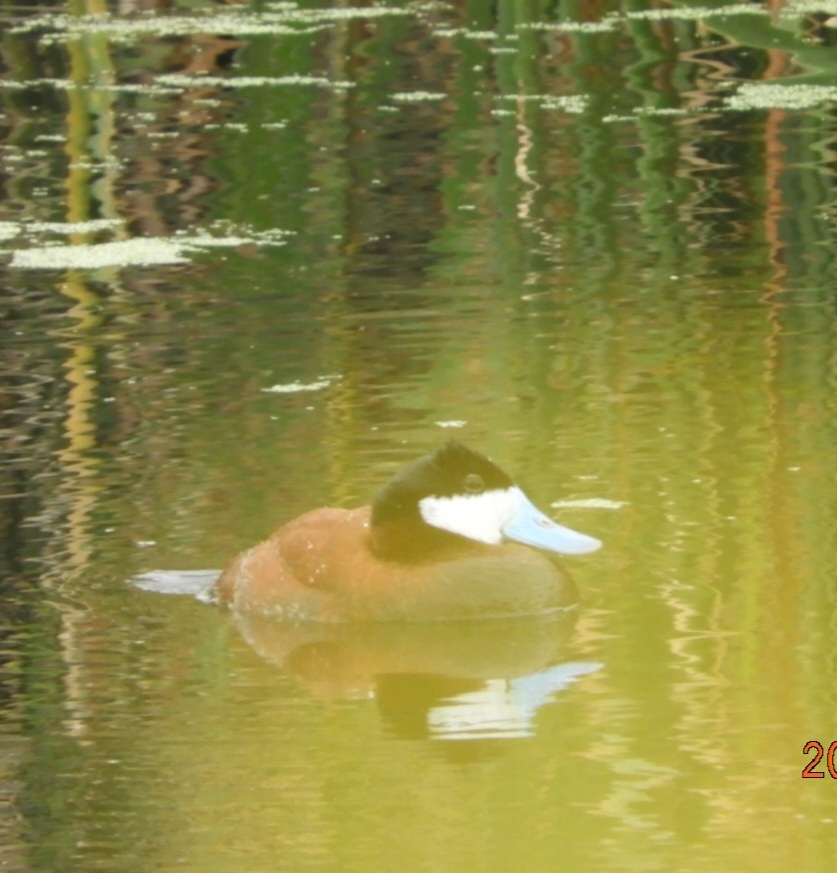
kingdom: Animalia
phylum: Chordata
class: Aves
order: Anseriformes
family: Anatidae
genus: Oxyura
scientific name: Oxyura jamaicensis
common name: Ruddy duck
